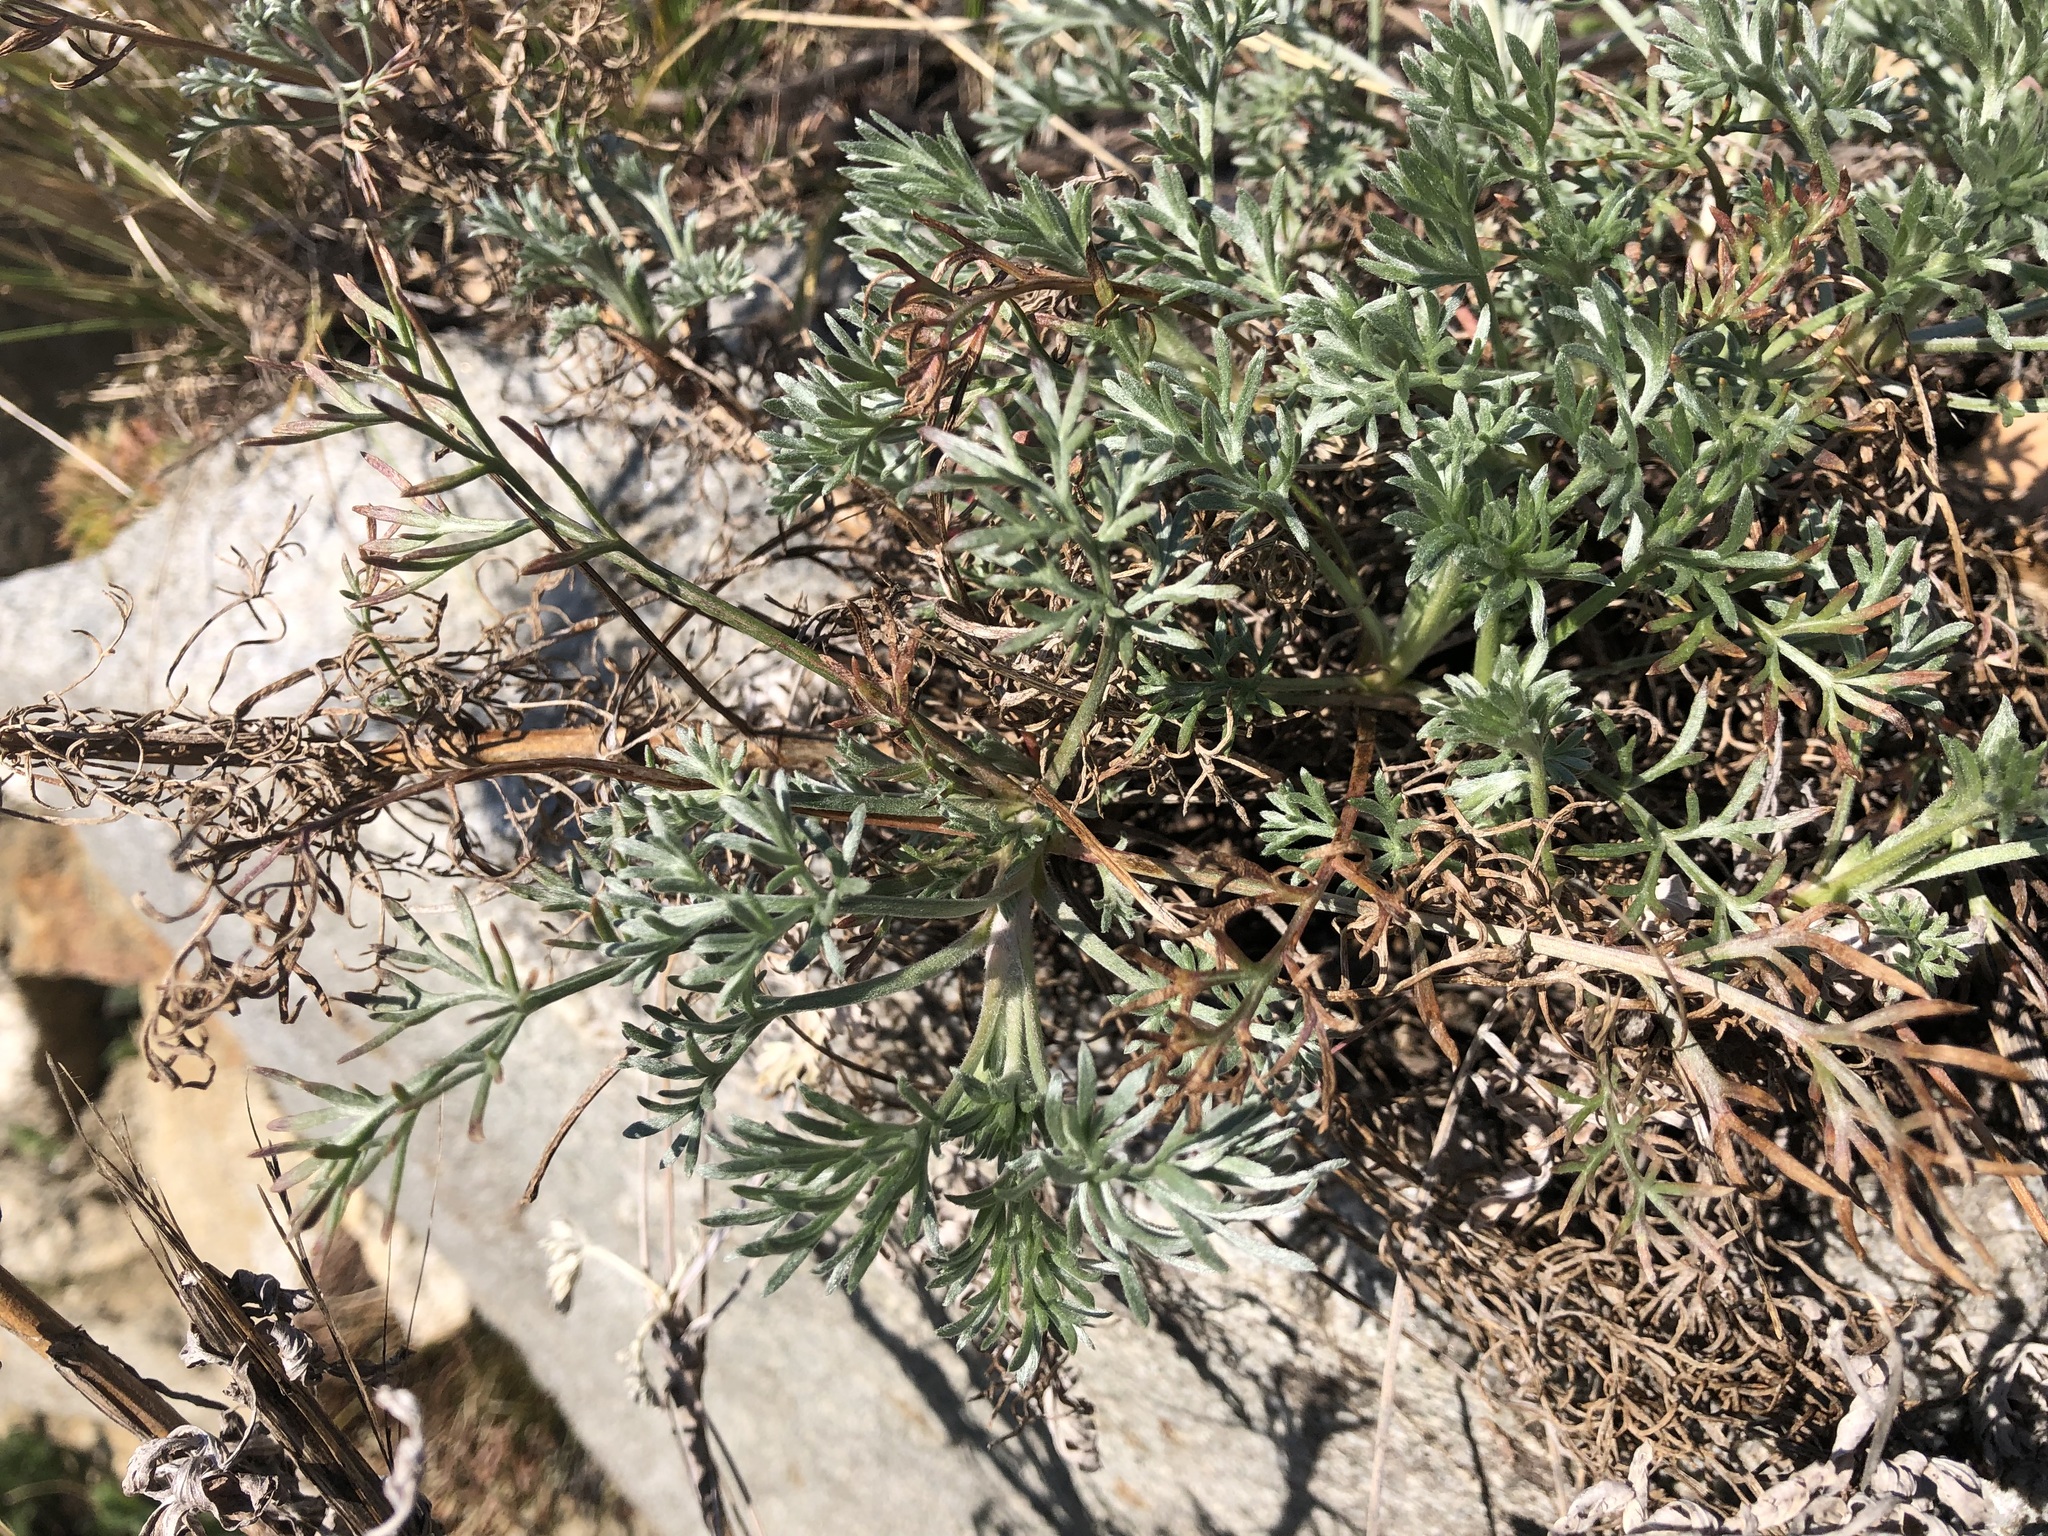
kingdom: Plantae
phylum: Tracheophyta
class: Magnoliopsida
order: Asterales
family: Asteraceae
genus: Artemisia
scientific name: Artemisia campestris
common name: Field wormwood
